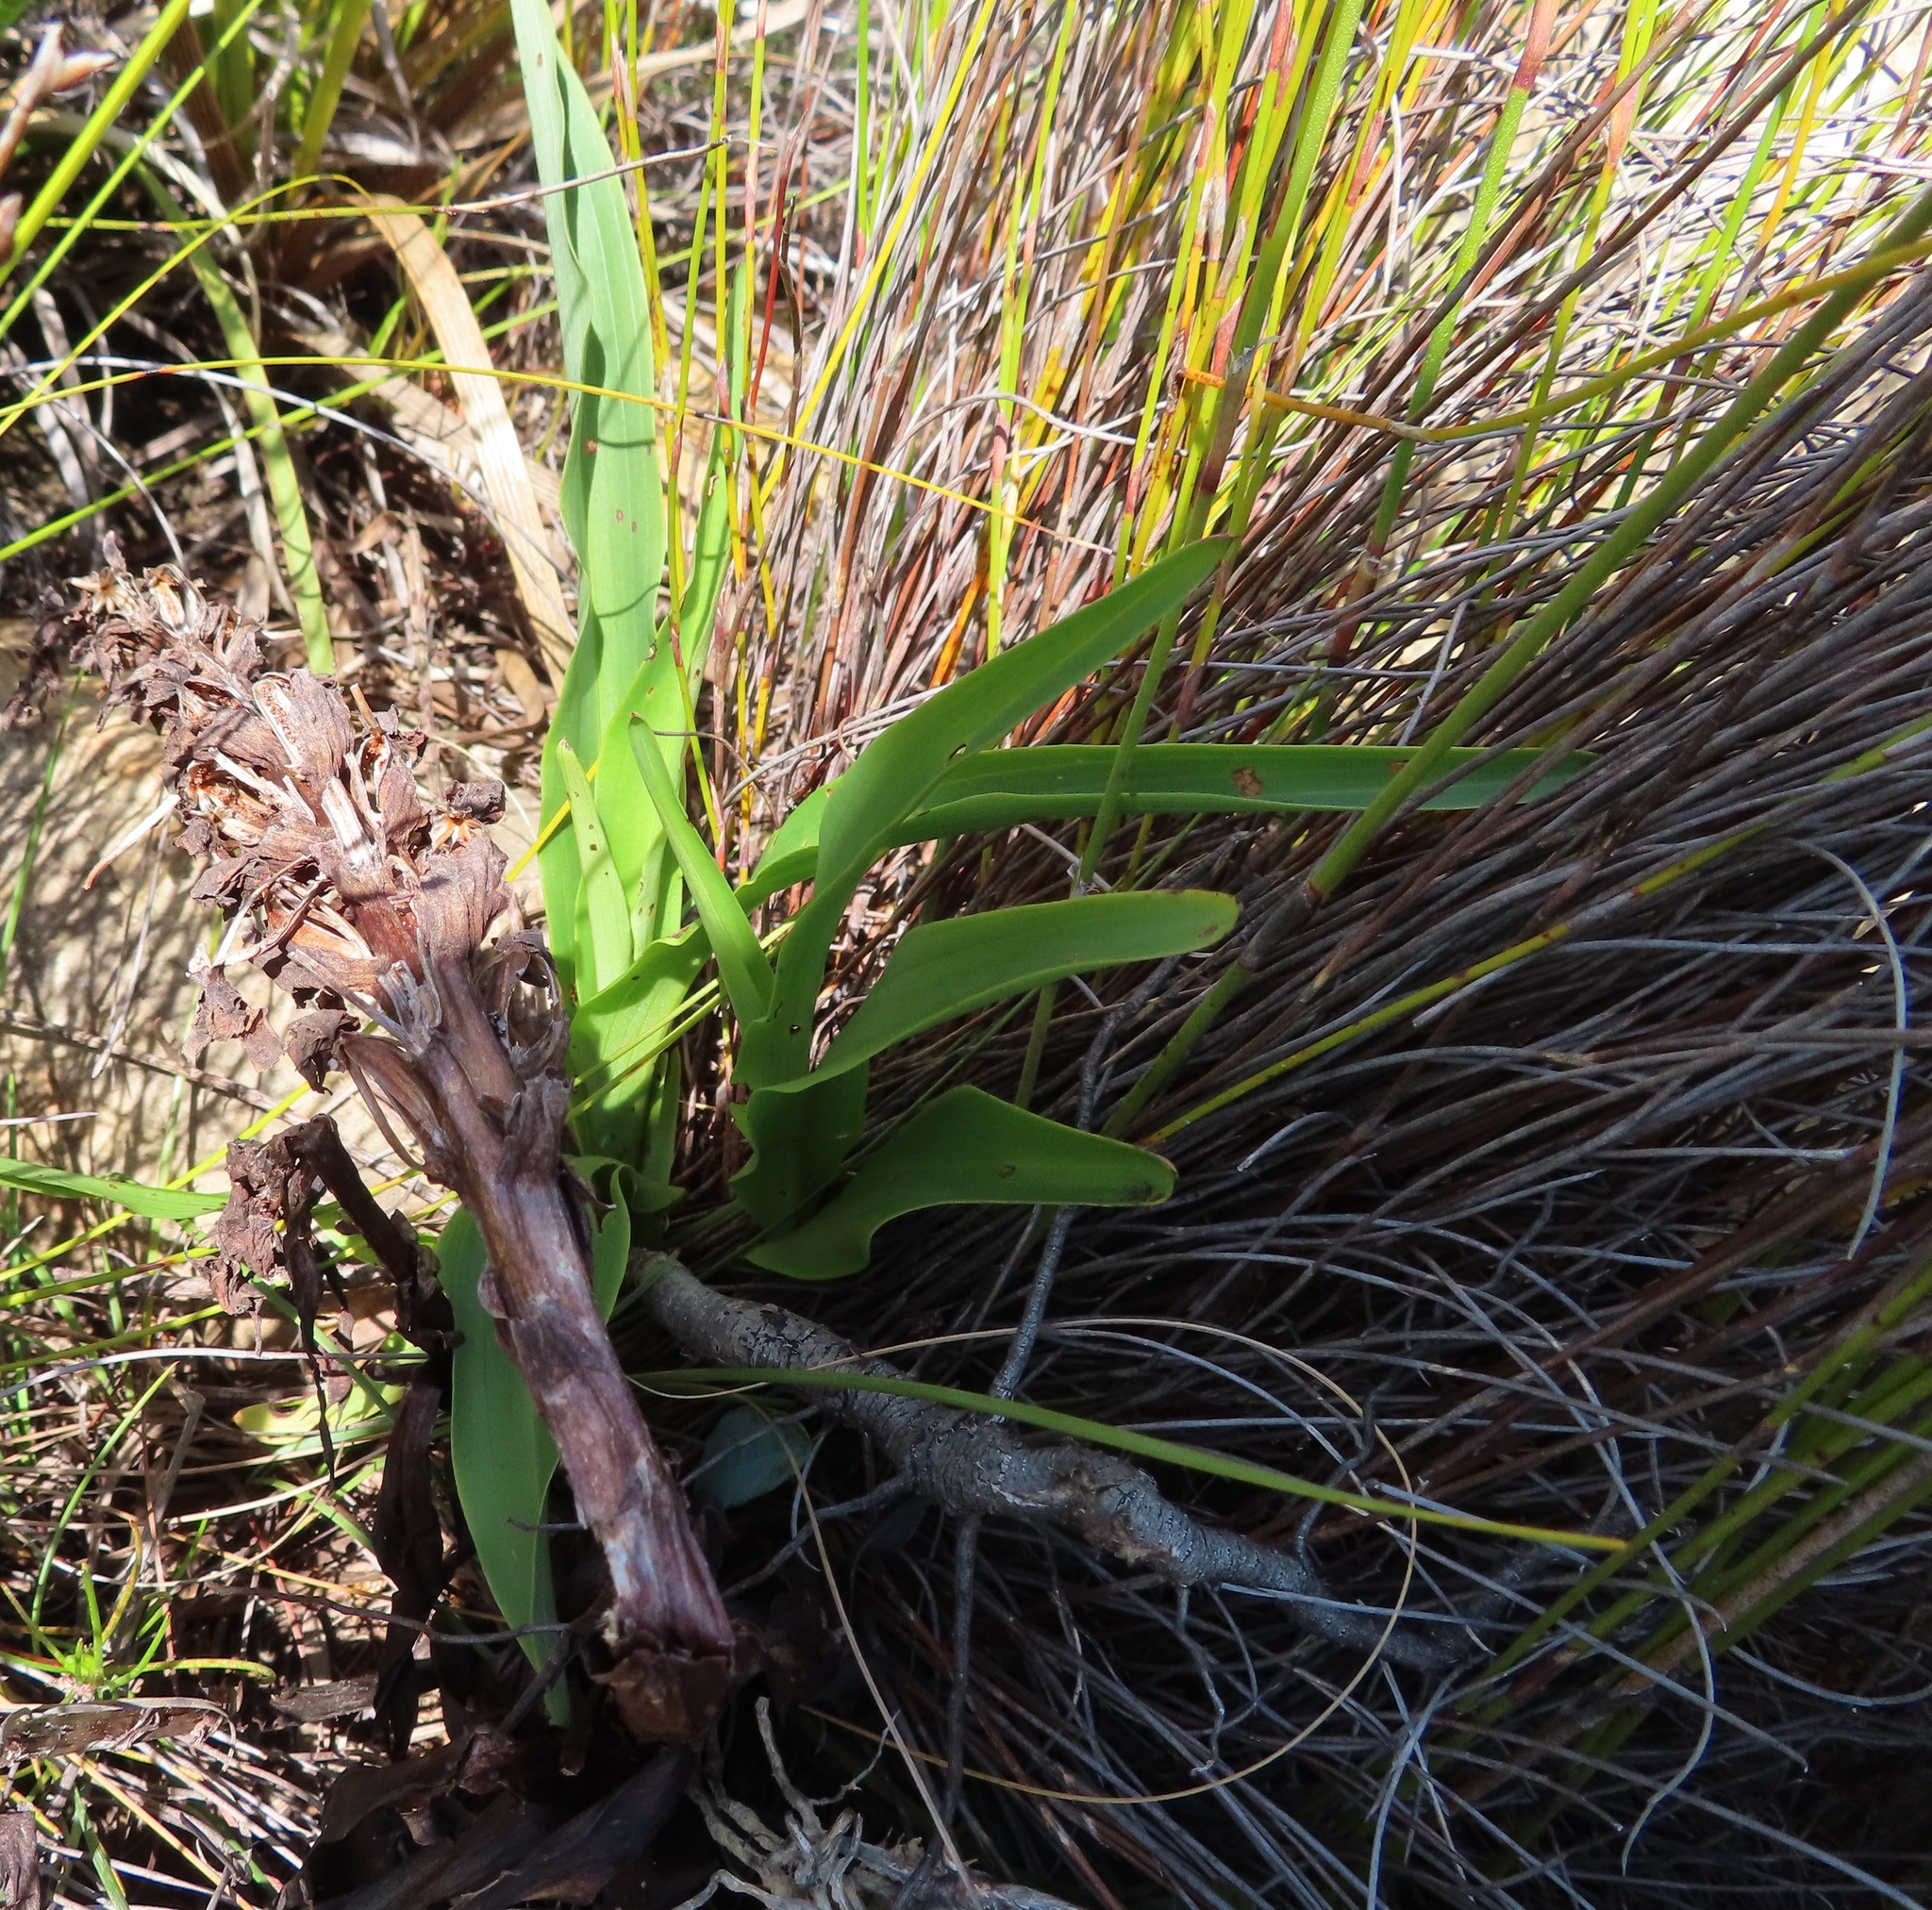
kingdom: Plantae
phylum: Tracheophyta
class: Liliopsida
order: Asparagales
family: Orchidaceae
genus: Disa
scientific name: Disa cornuta
